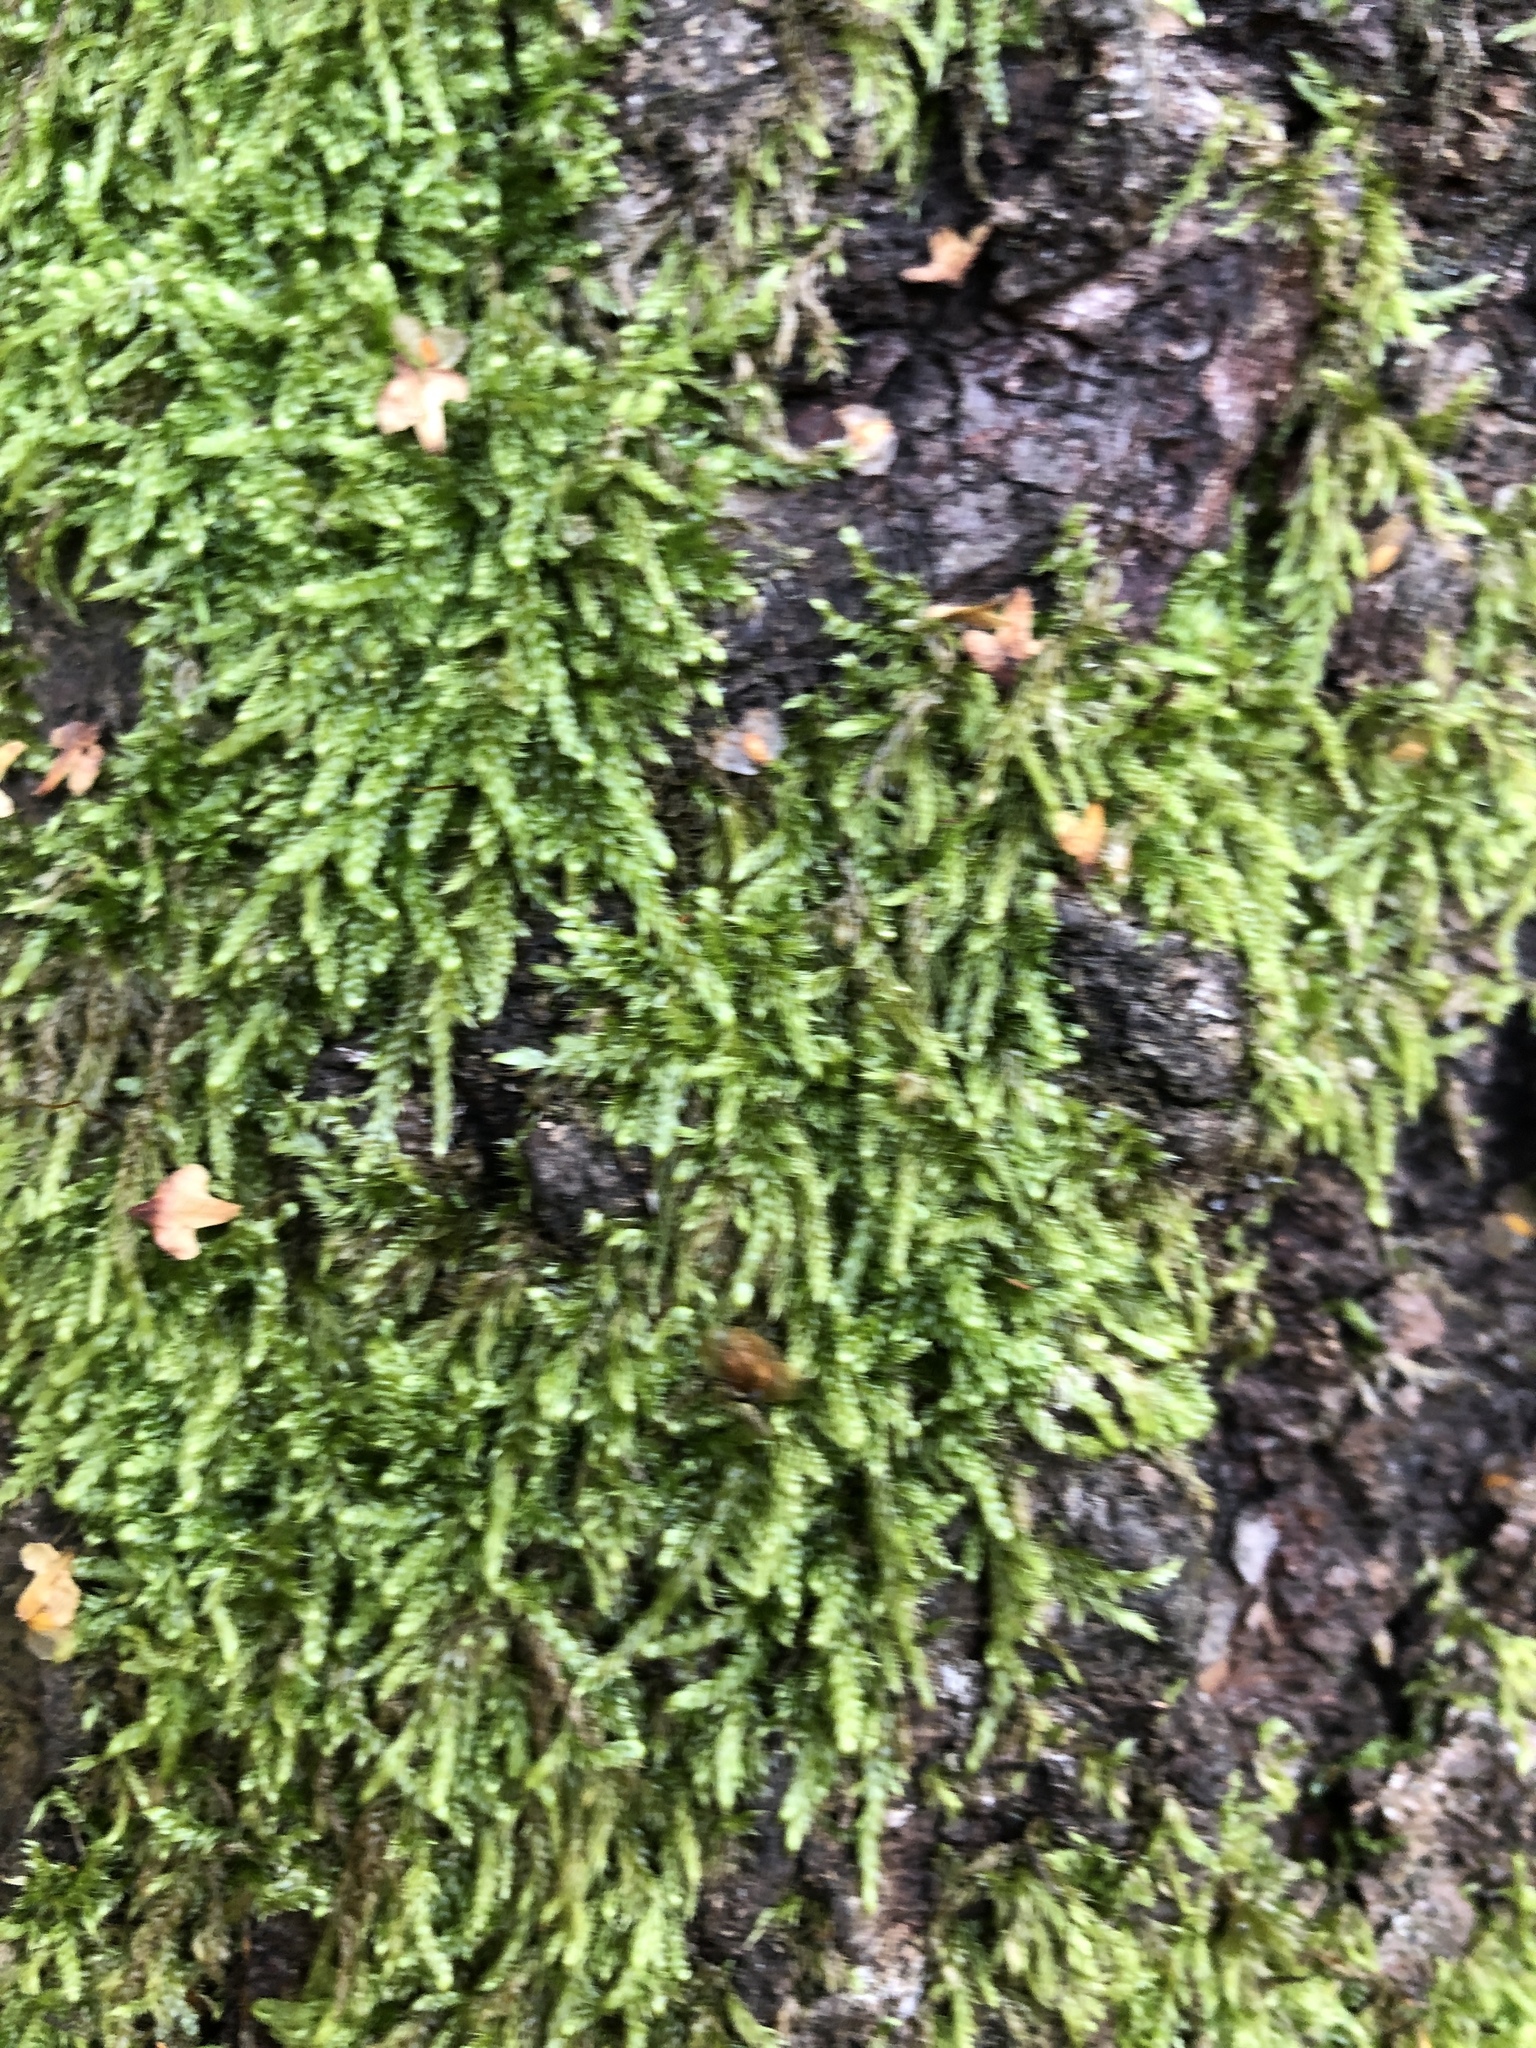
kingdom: Plantae
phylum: Bryophyta
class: Bryopsida
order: Hypnales
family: Hypnaceae
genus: Hypnum
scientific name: Hypnum cupressiforme
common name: Cypress-leaved plait-moss
